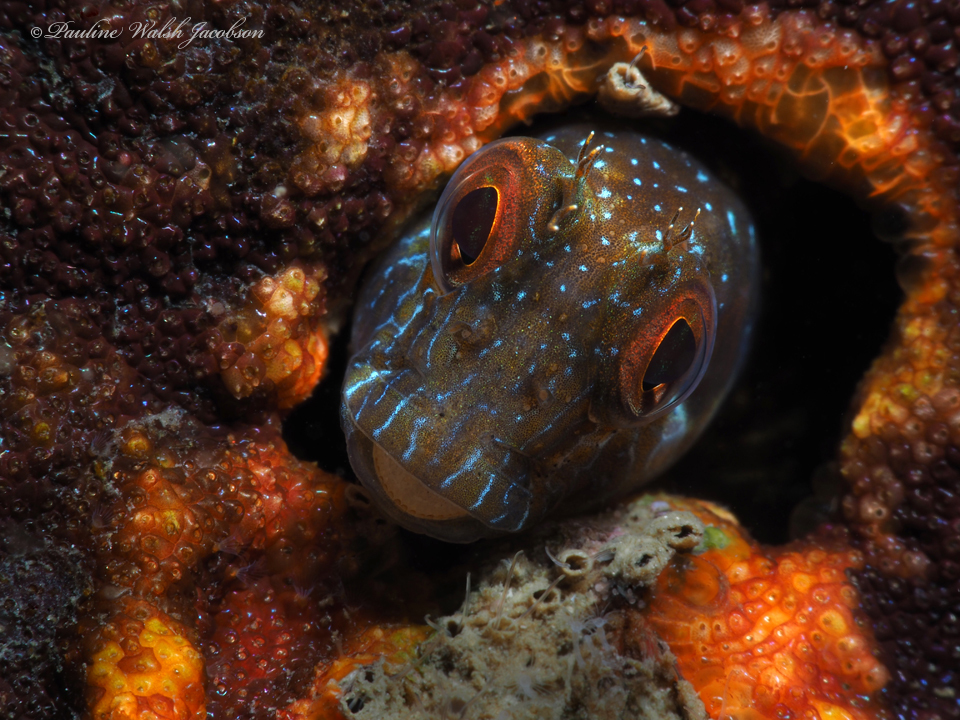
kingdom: Animalia
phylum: Chordata
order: Perciformes
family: Blenniidae
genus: Parablennius
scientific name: Parablennius marmoreus
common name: Seaweed blenny
